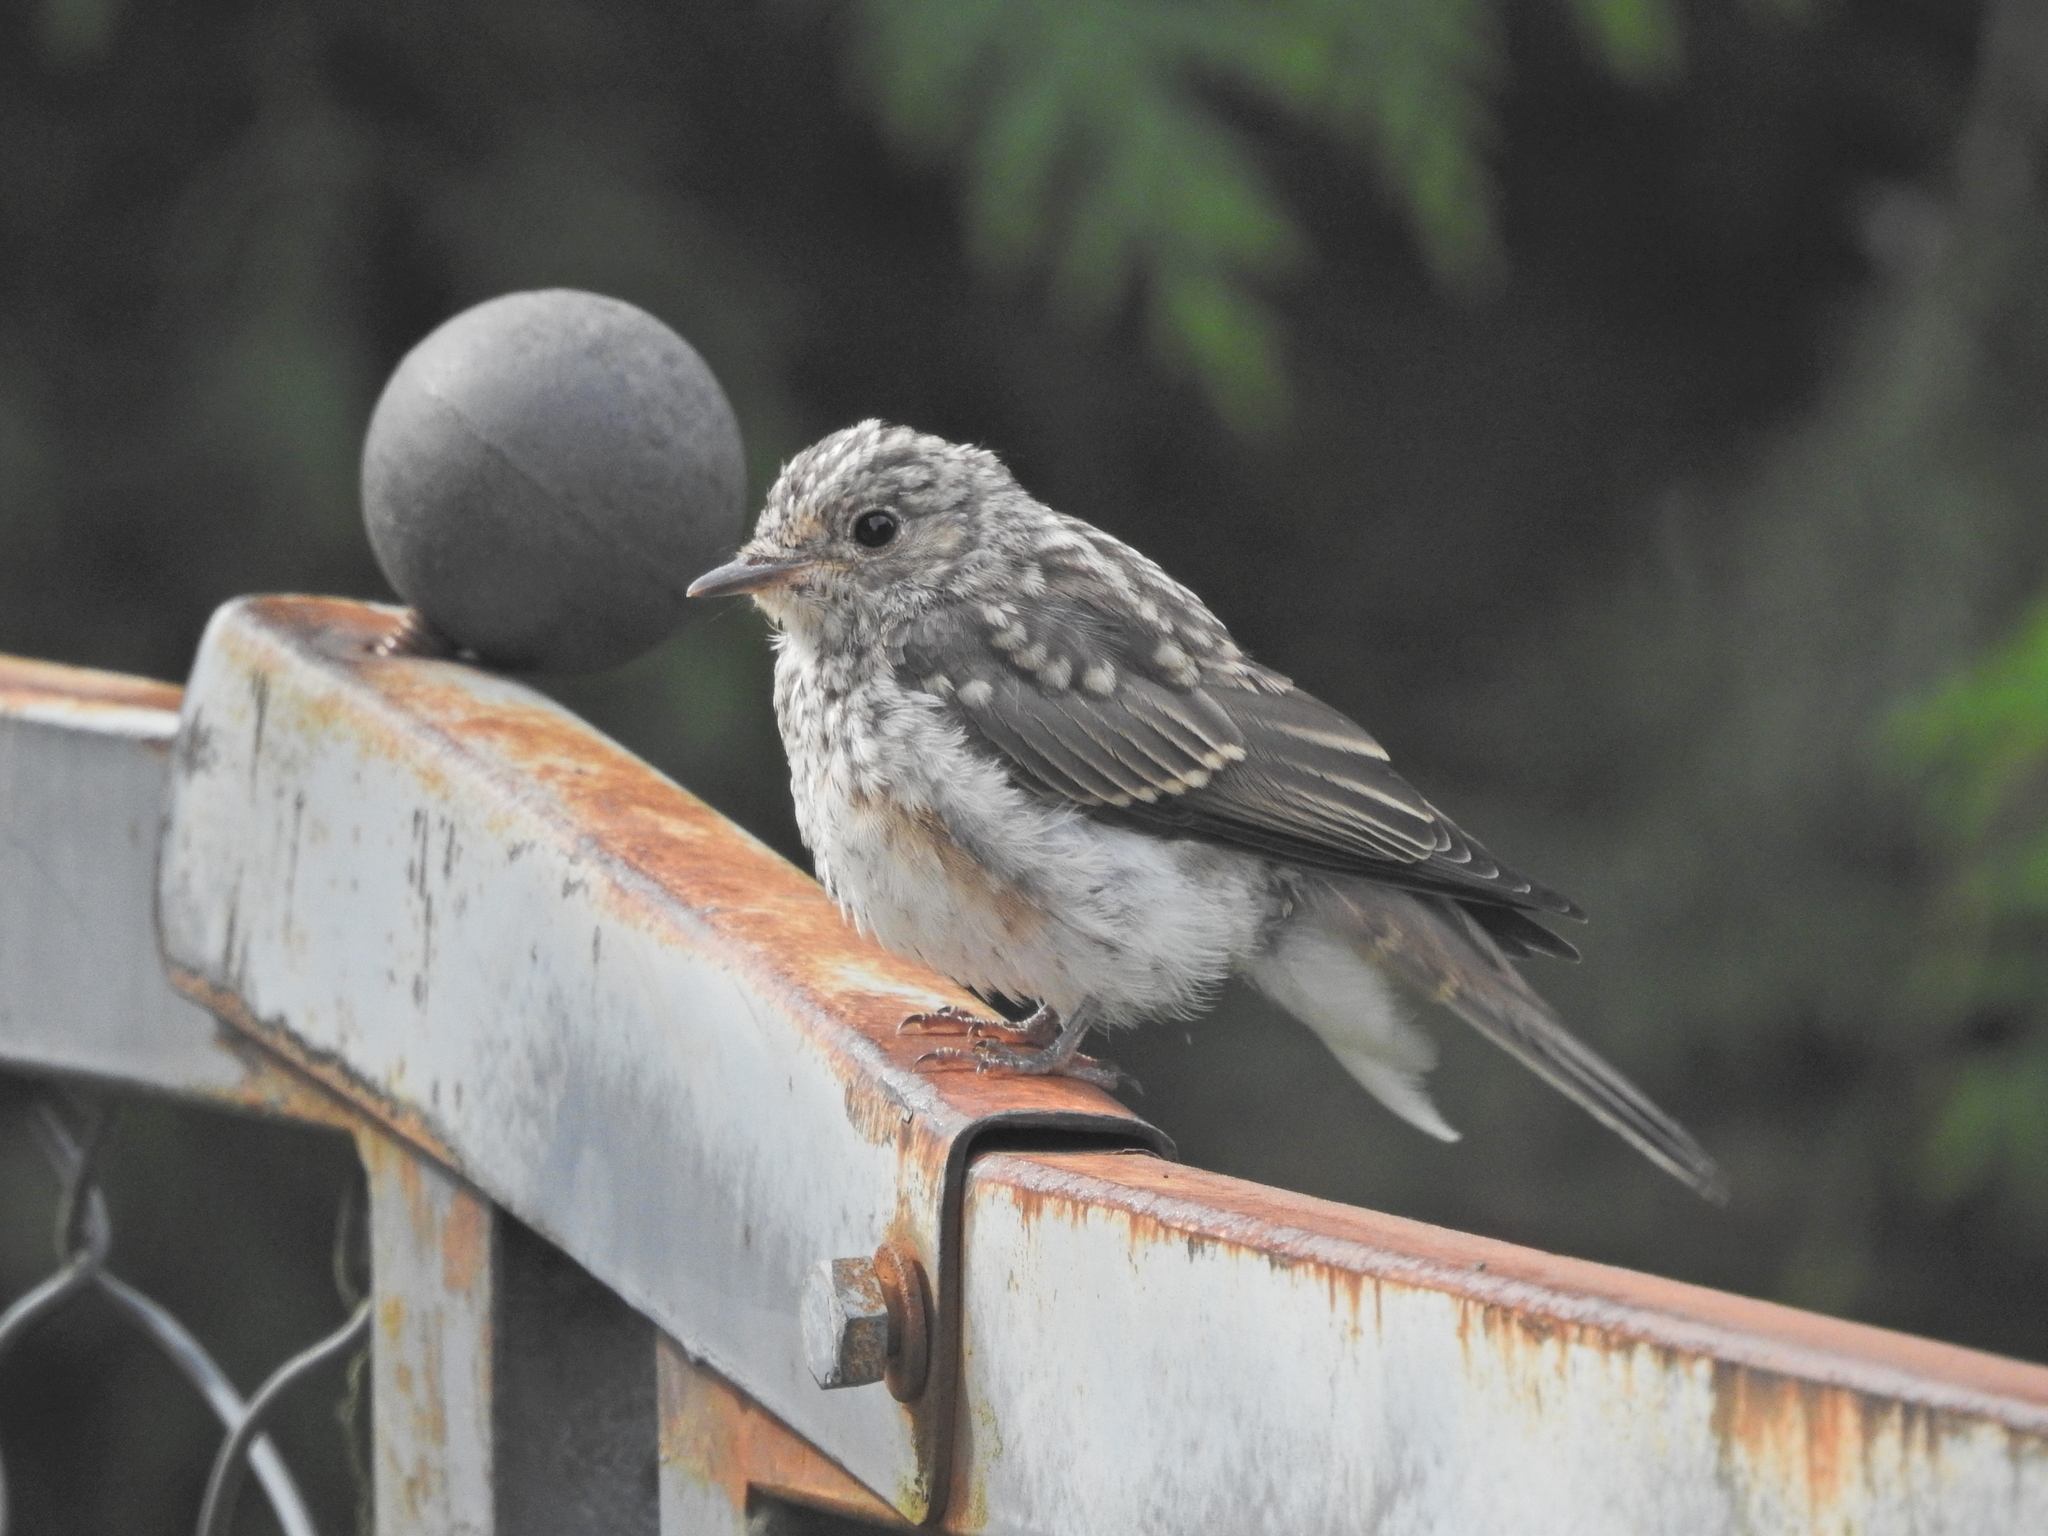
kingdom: Animalia
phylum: Chordata
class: Aves
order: Passeriformes
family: Muscicapidae
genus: Muscicapa
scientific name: Muscicapa striata
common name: Spotted flycatcher
